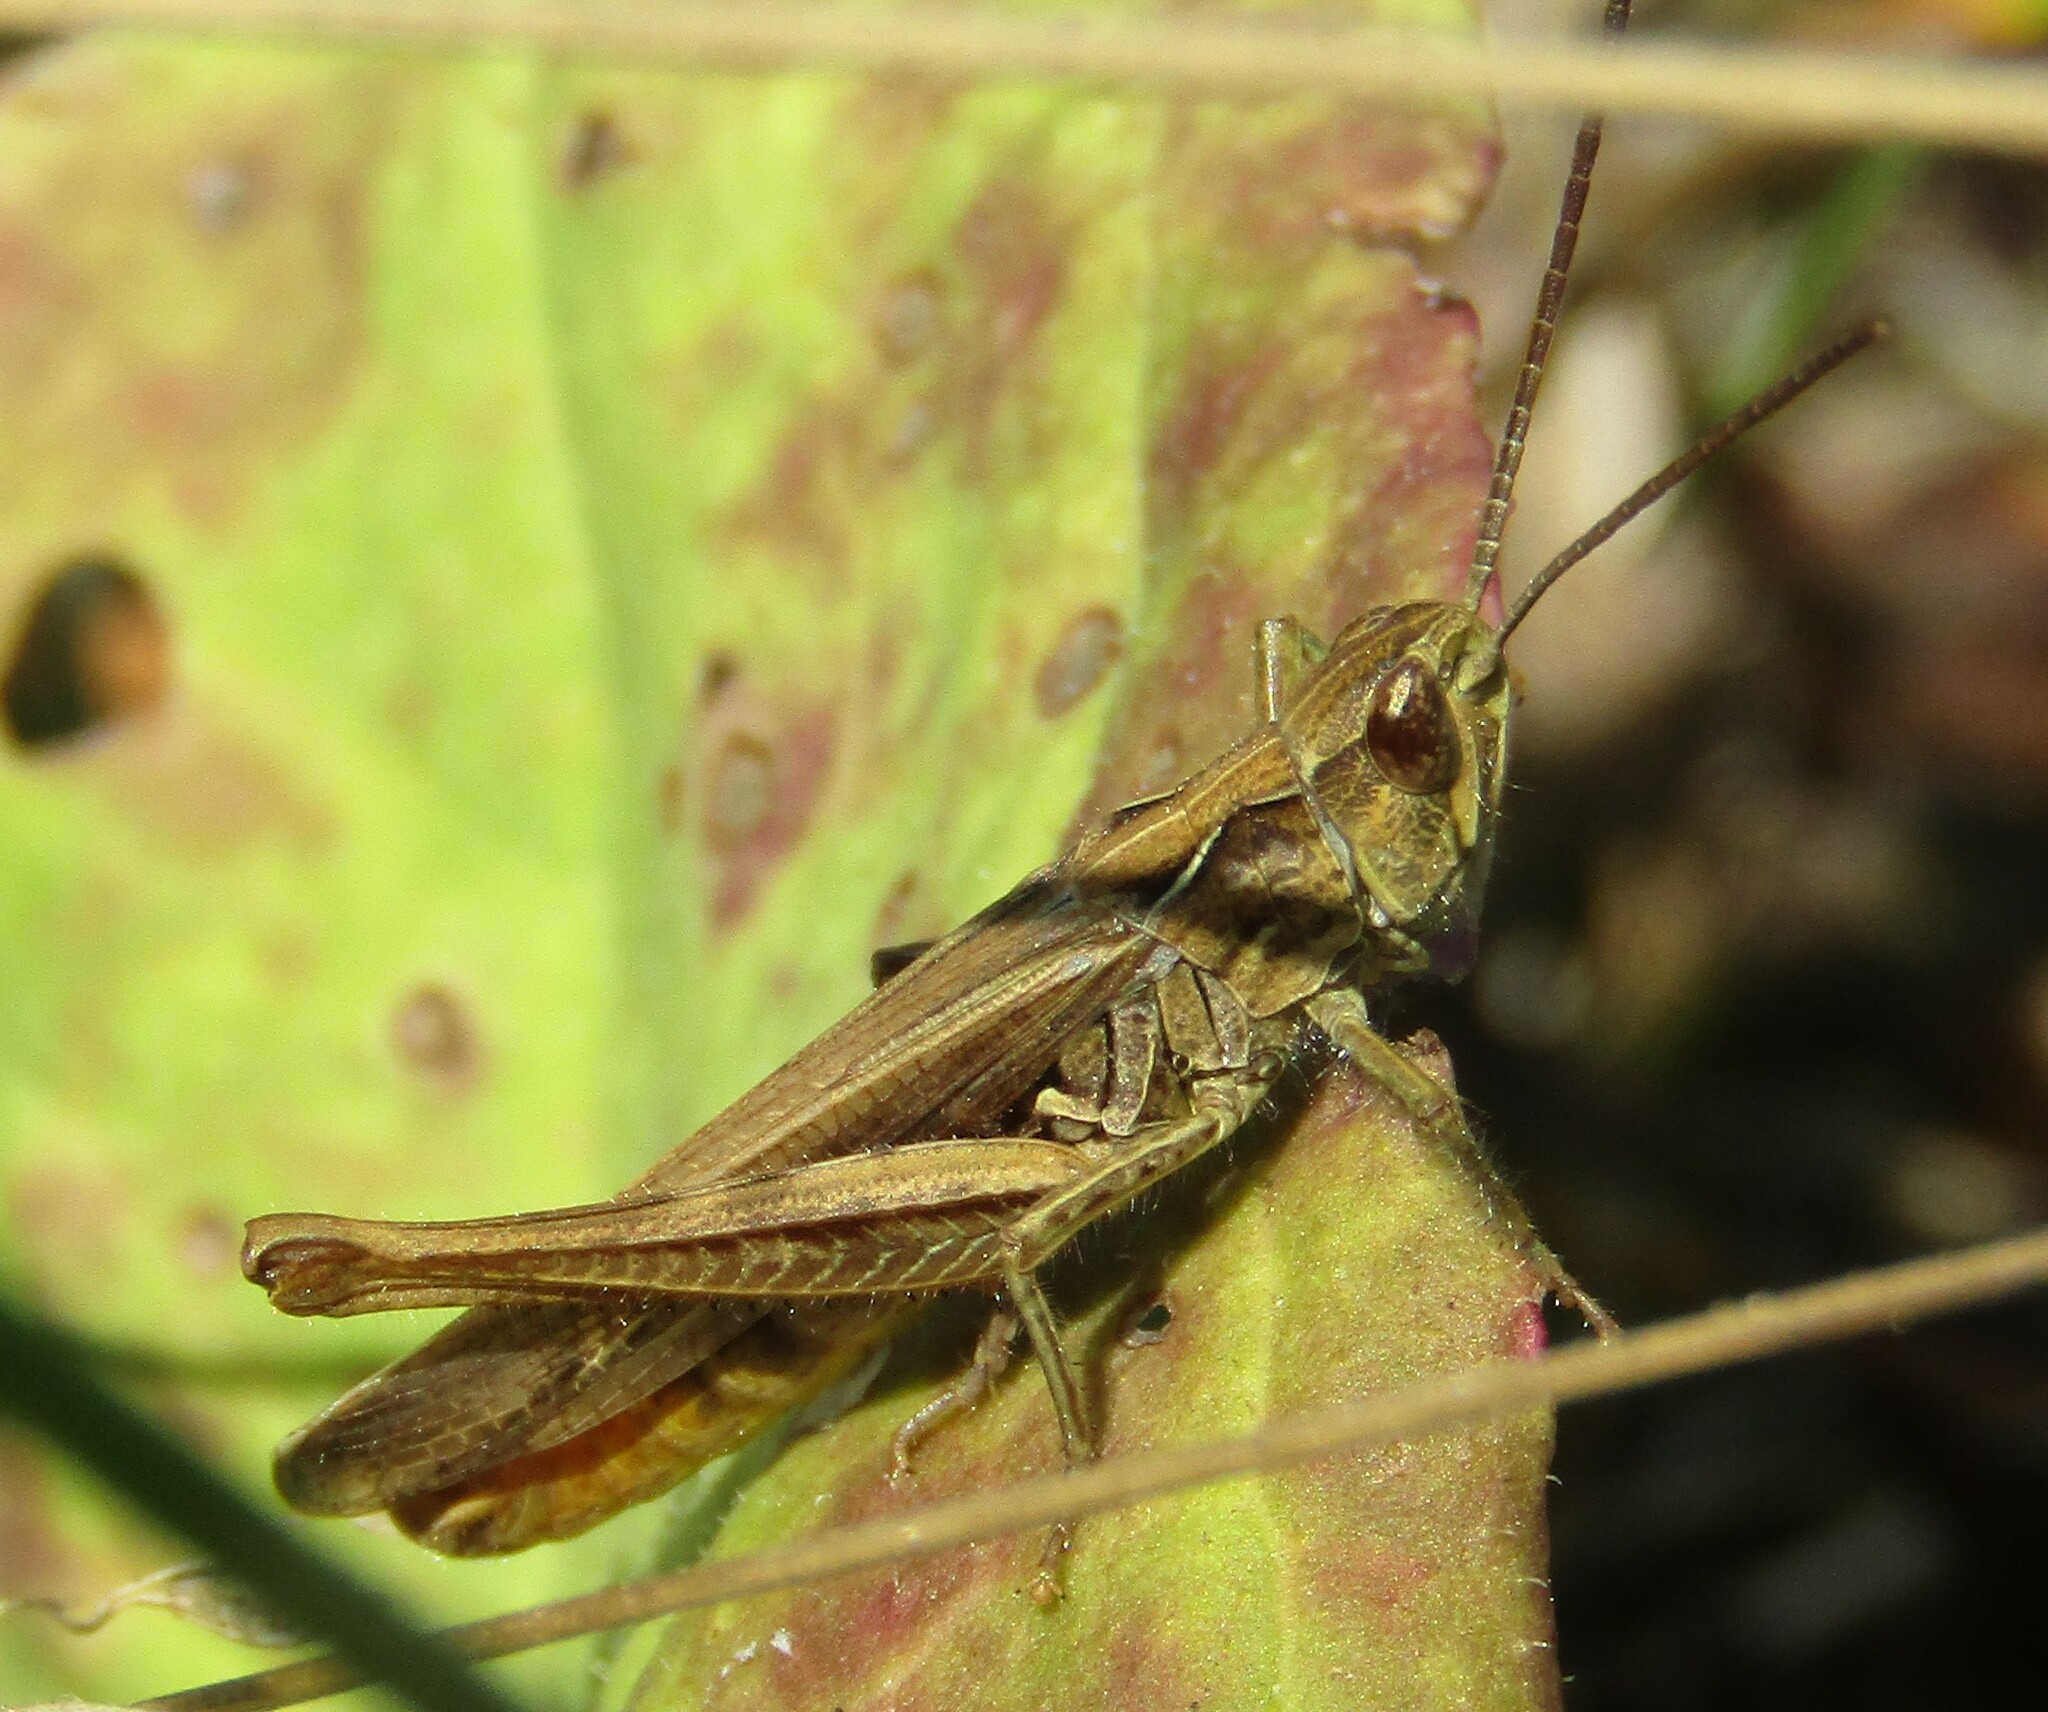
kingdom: Animalia
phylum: Arthropoda
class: Insecta
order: Orthoptera
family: Acrididae
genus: Chorthippus
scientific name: Chorthippus mollis
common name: Lesser field grasshopper
